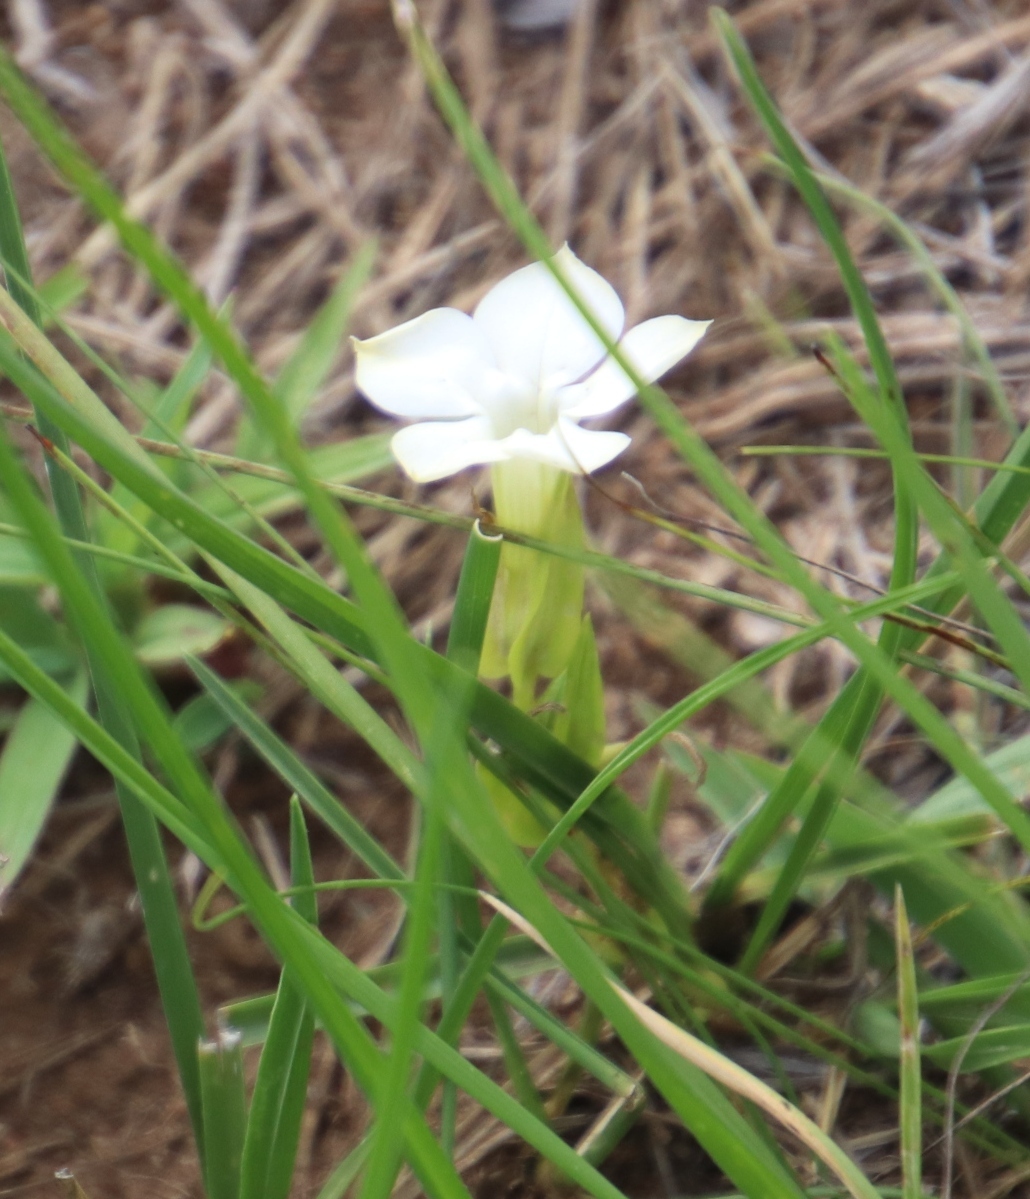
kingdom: Plantae
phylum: Tracheophyta
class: Magnoliopsida
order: Lamiales
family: Acanthaceae
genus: Thunbergia
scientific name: Thunbergia atriplicifolia
